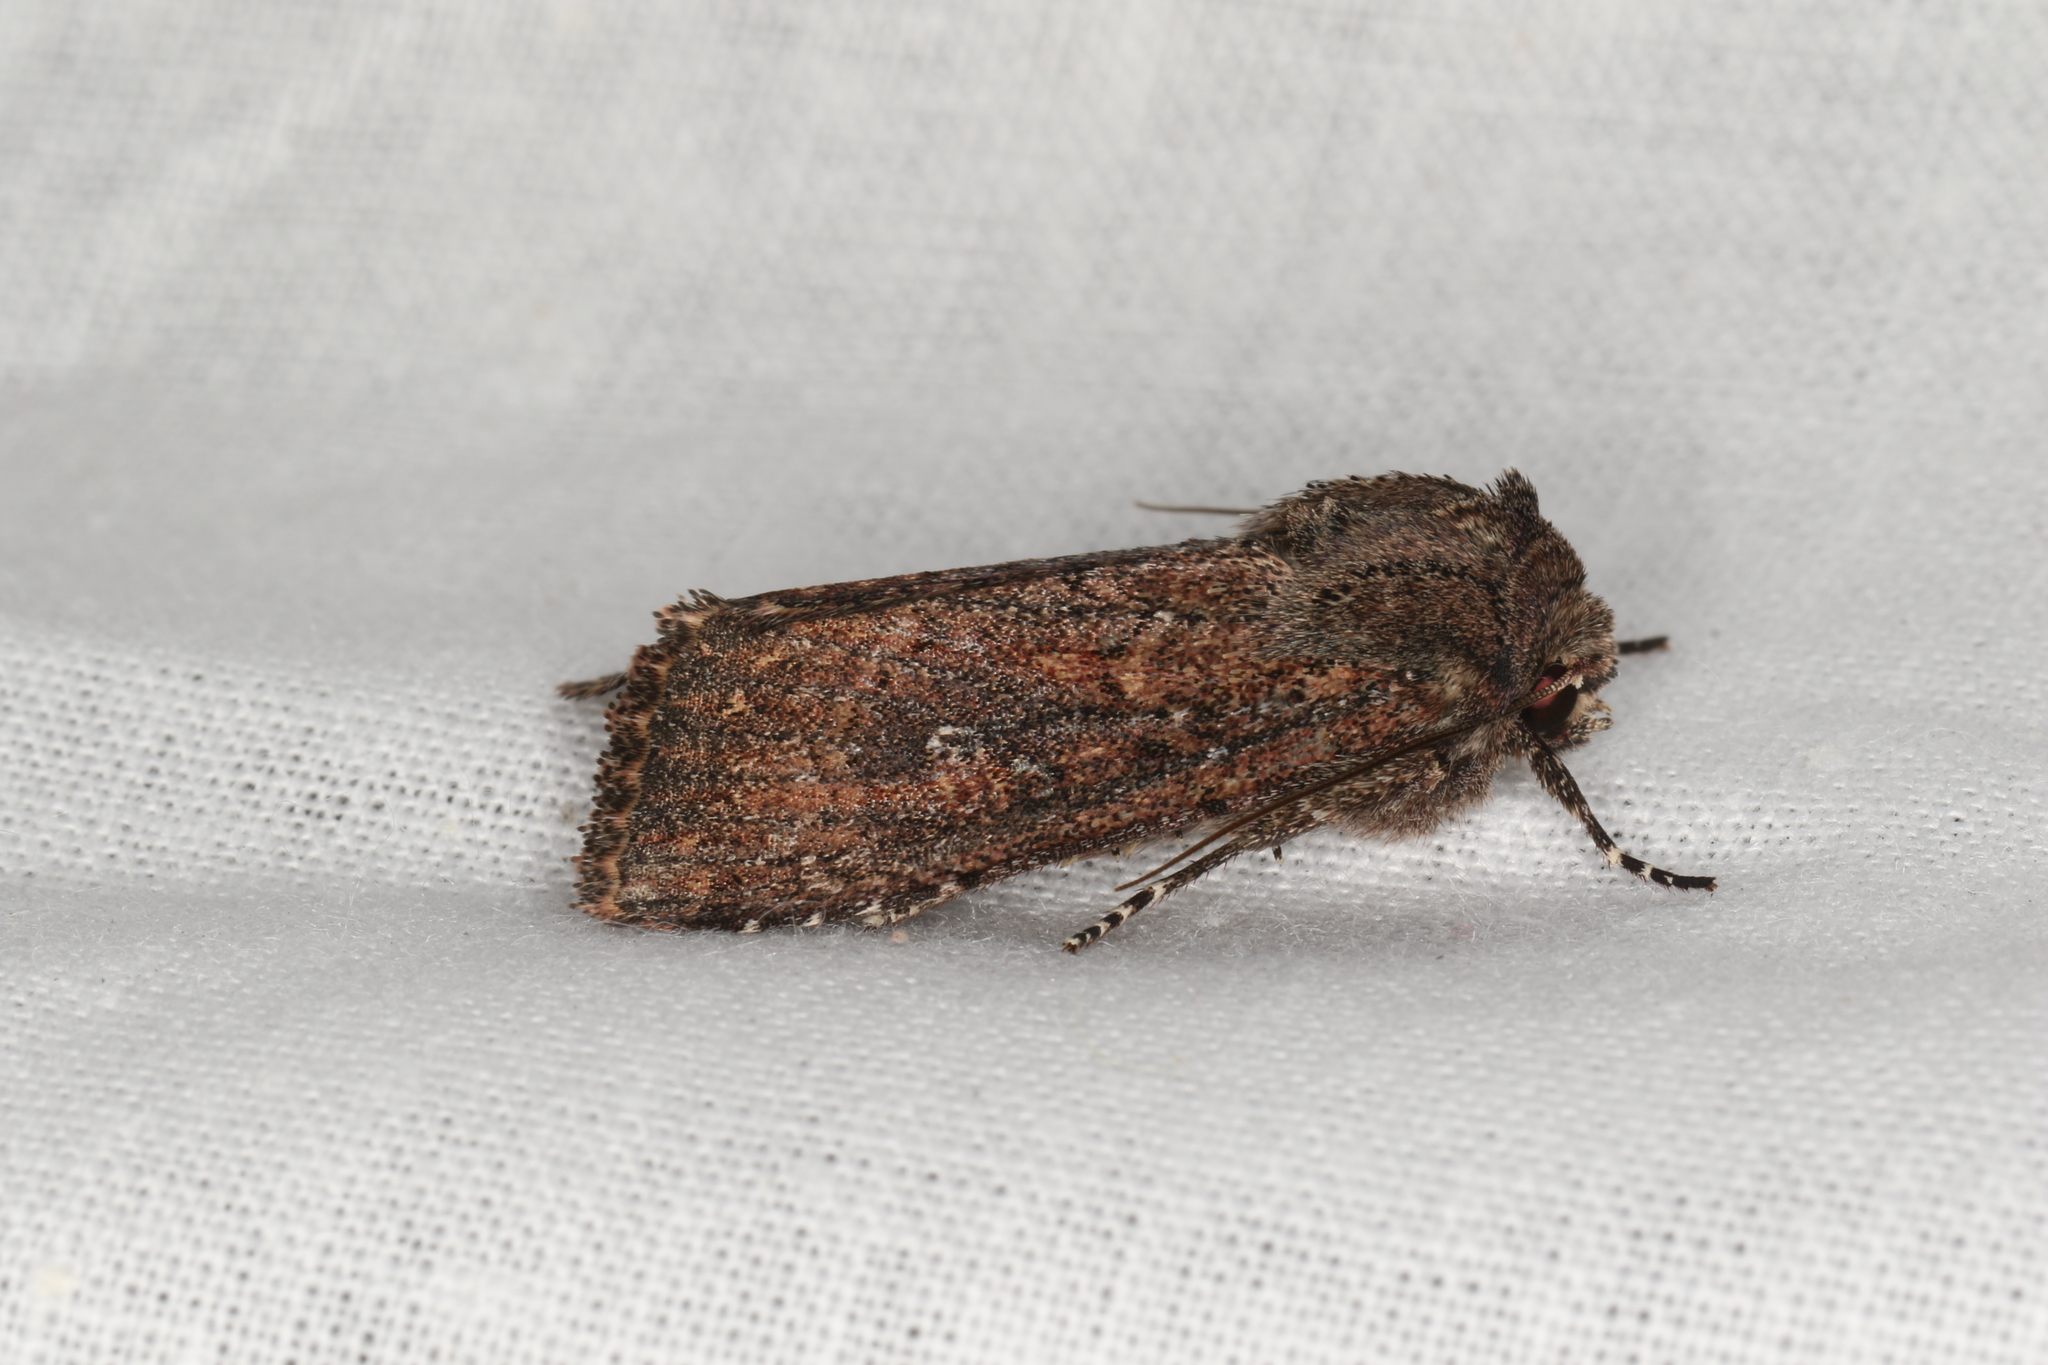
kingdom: Animalia
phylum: Arthropoda
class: Insecta
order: Lepidoptera
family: Noctuidae
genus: Dasygaster
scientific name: Dasygaster padockina
